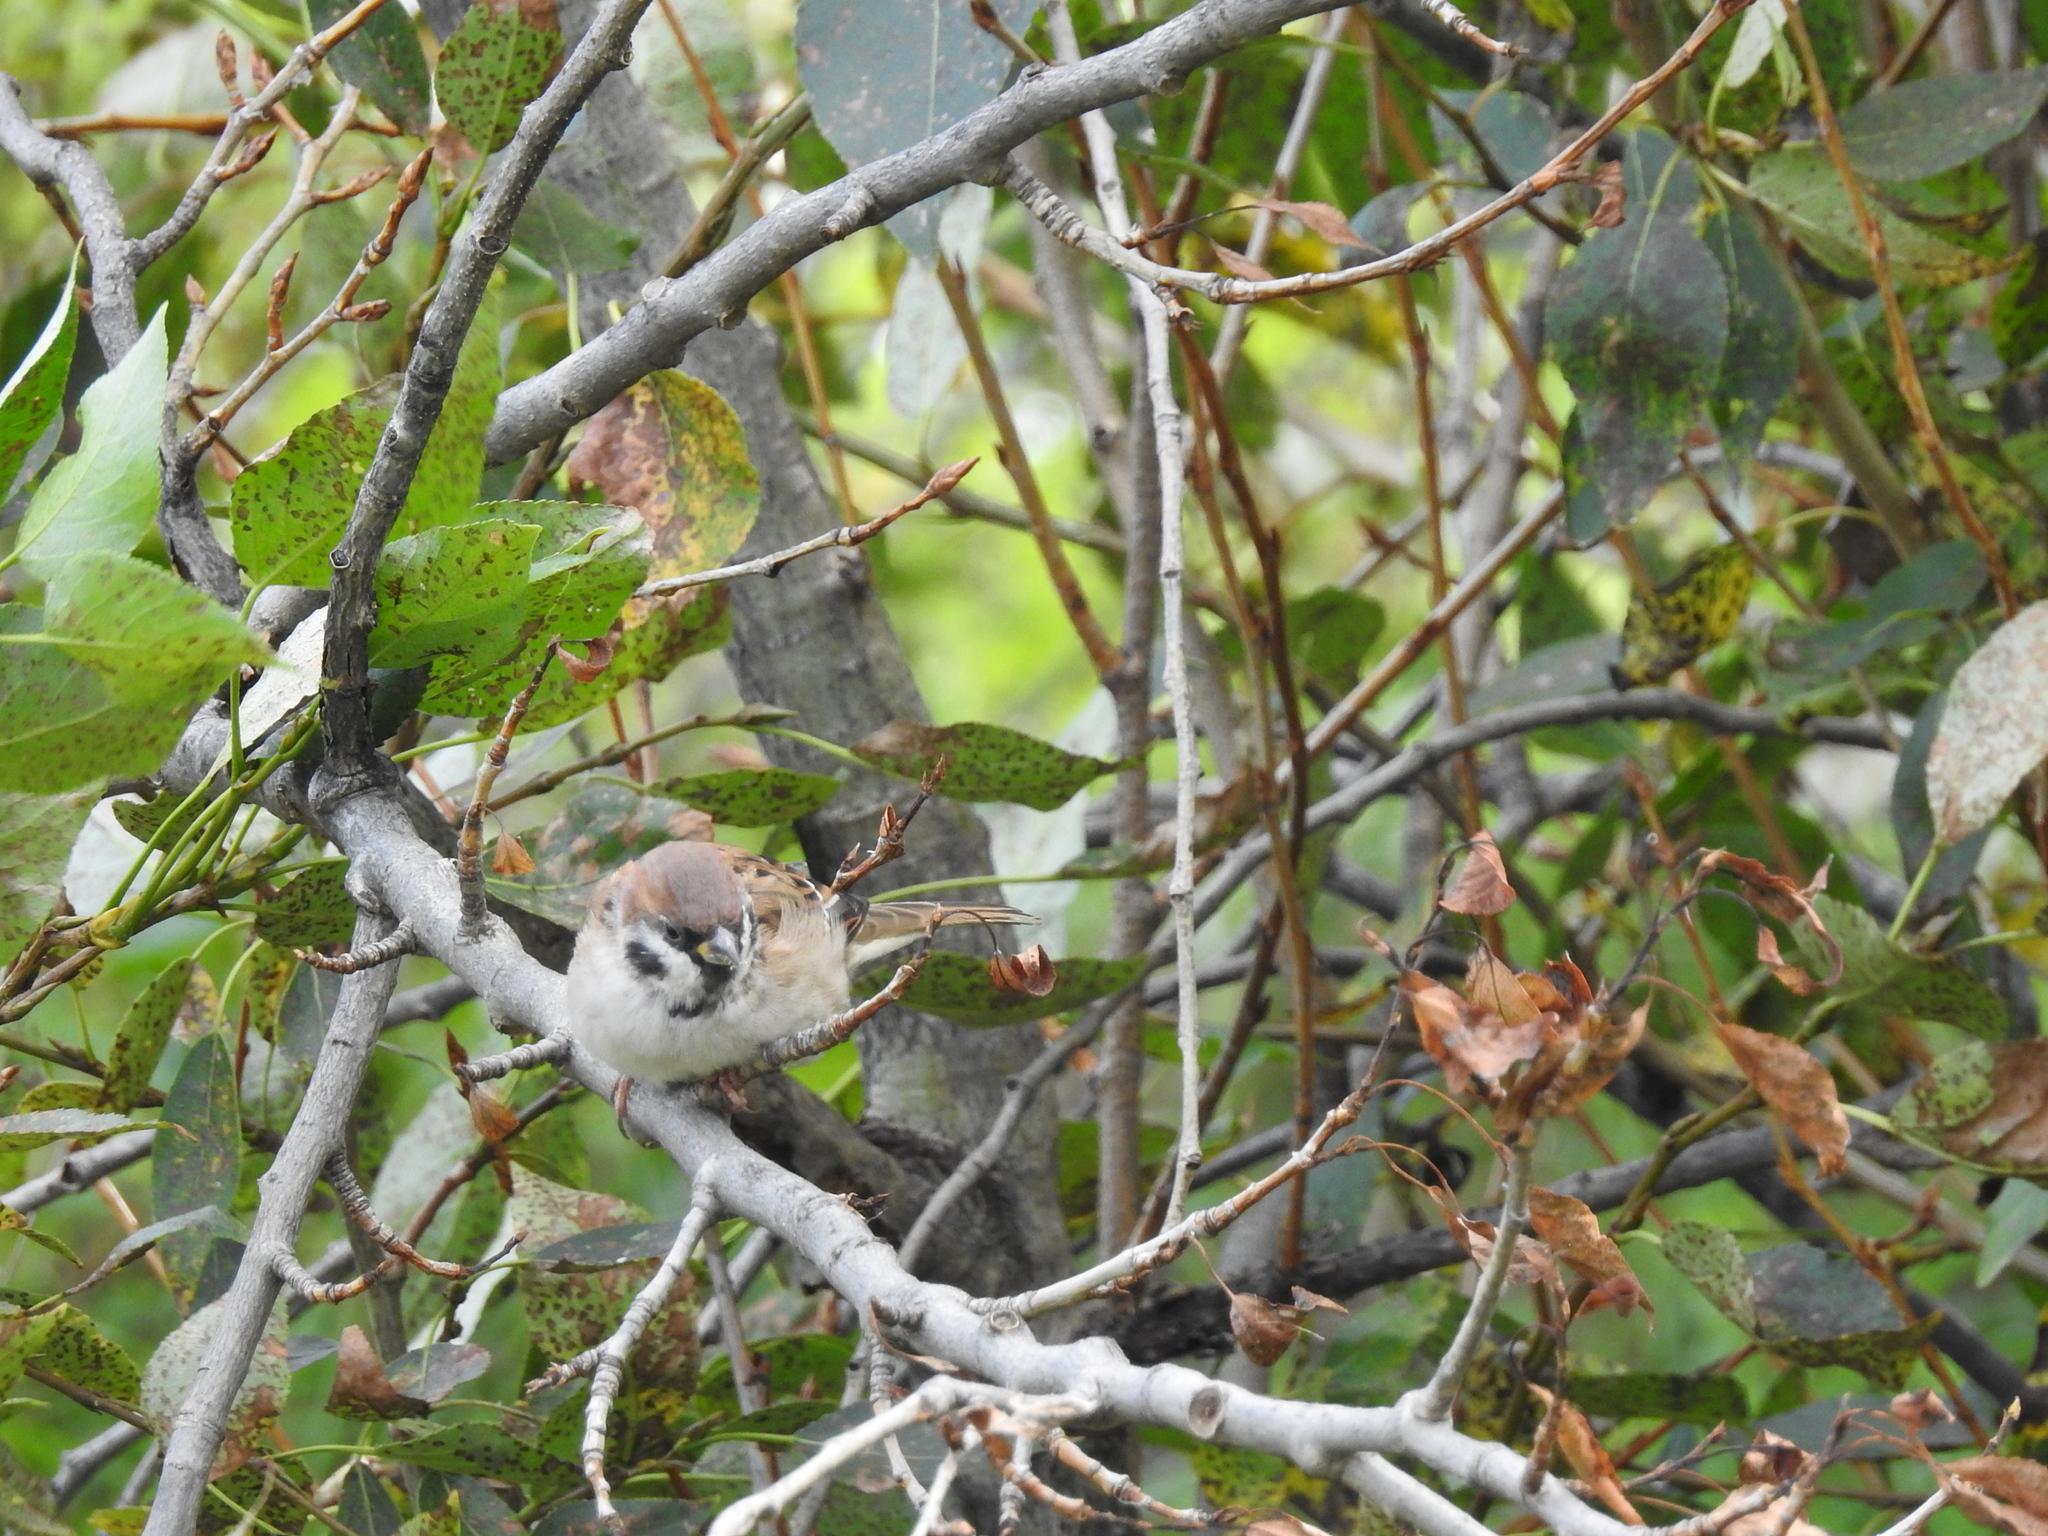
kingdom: Animalia
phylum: Chordata
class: Aves
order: Passeriformes
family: Passeridae
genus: Passer
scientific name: Passer montanus
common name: Eurasian tree sparrow
